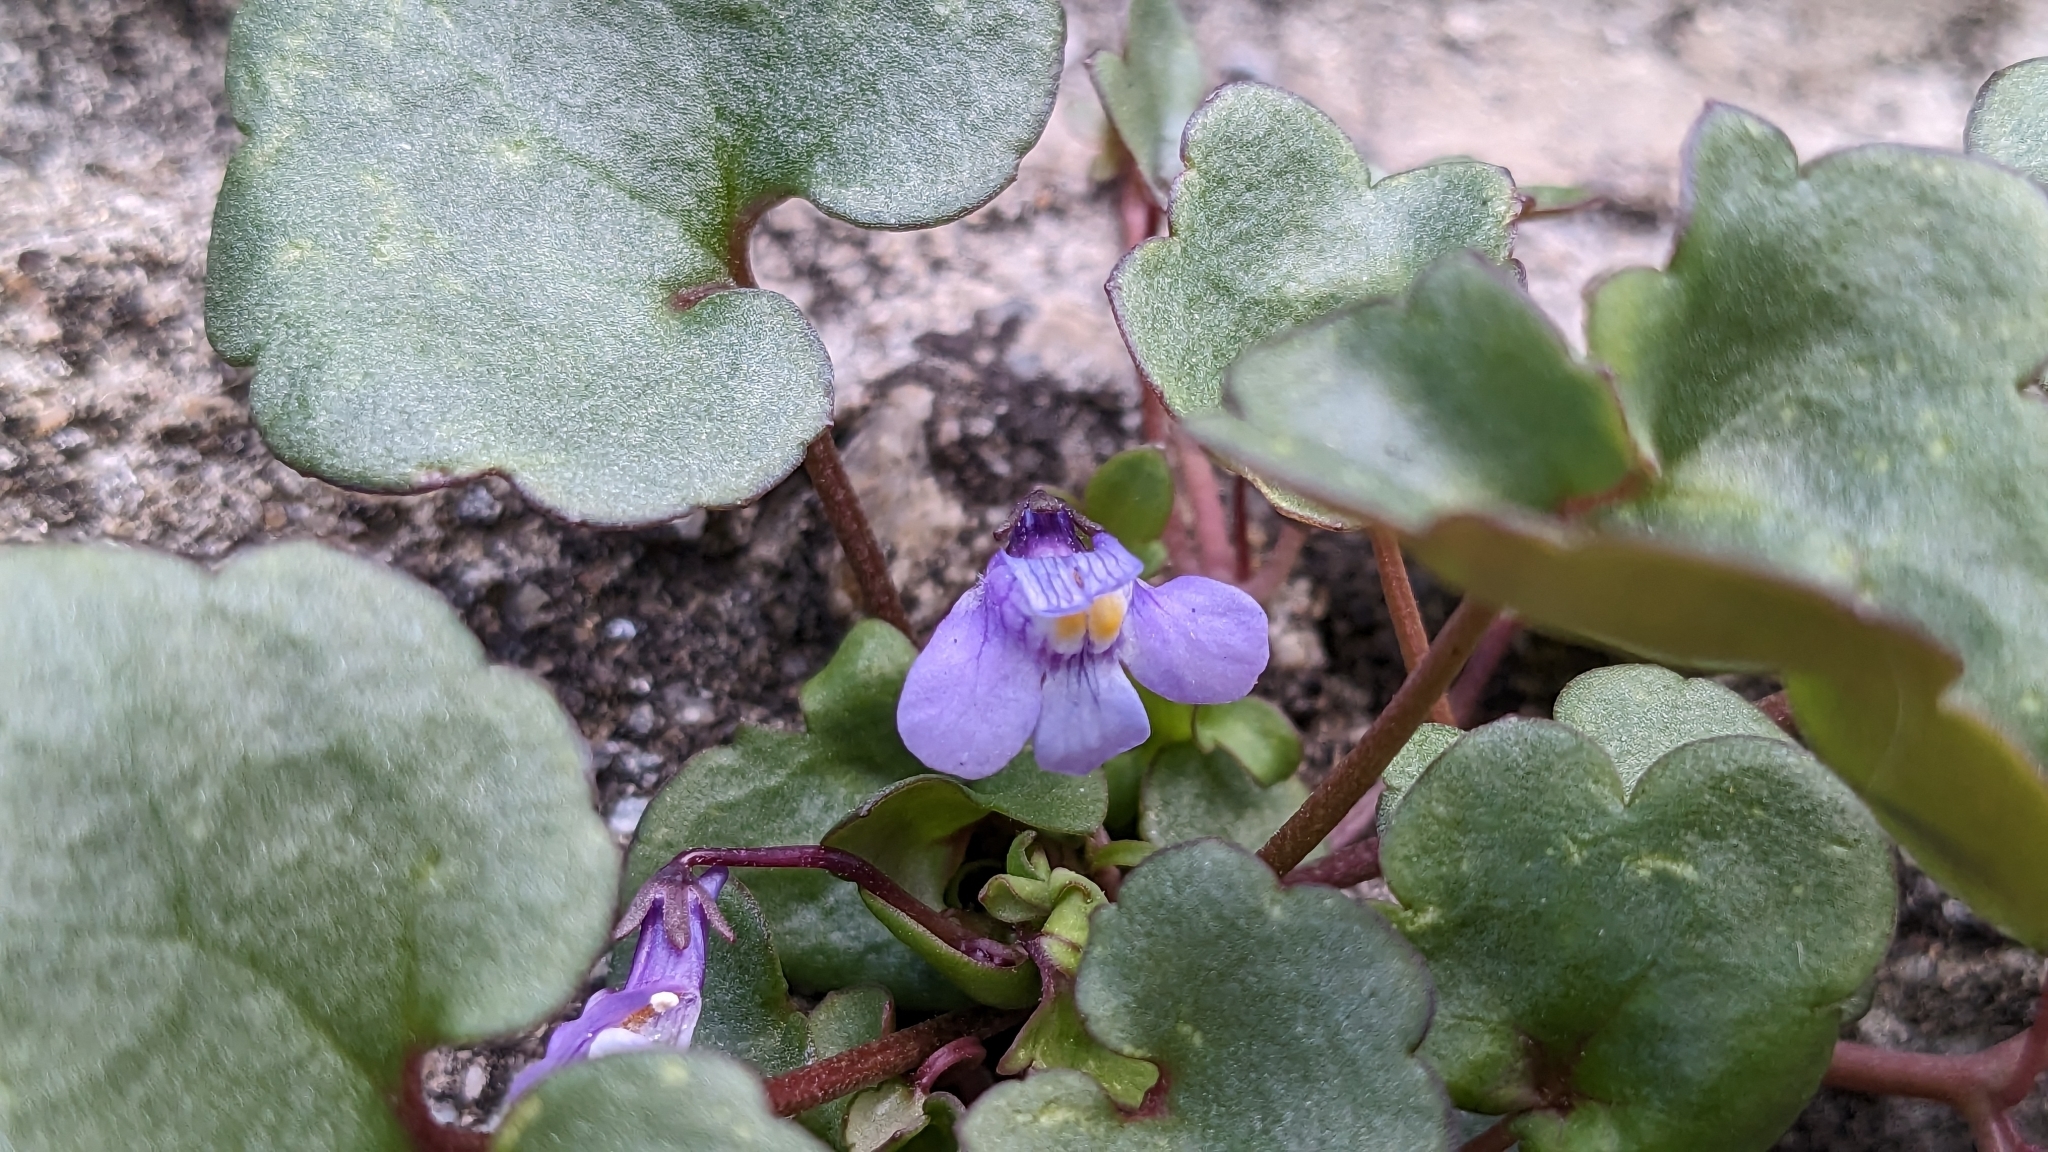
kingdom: Plantae
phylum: Tracheophyta
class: Magnoliopsida
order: Lamiales
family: Plantaginaceae
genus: Cymbalaria
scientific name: Cymbalaria muralis
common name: Ivy-leaved toadflax
